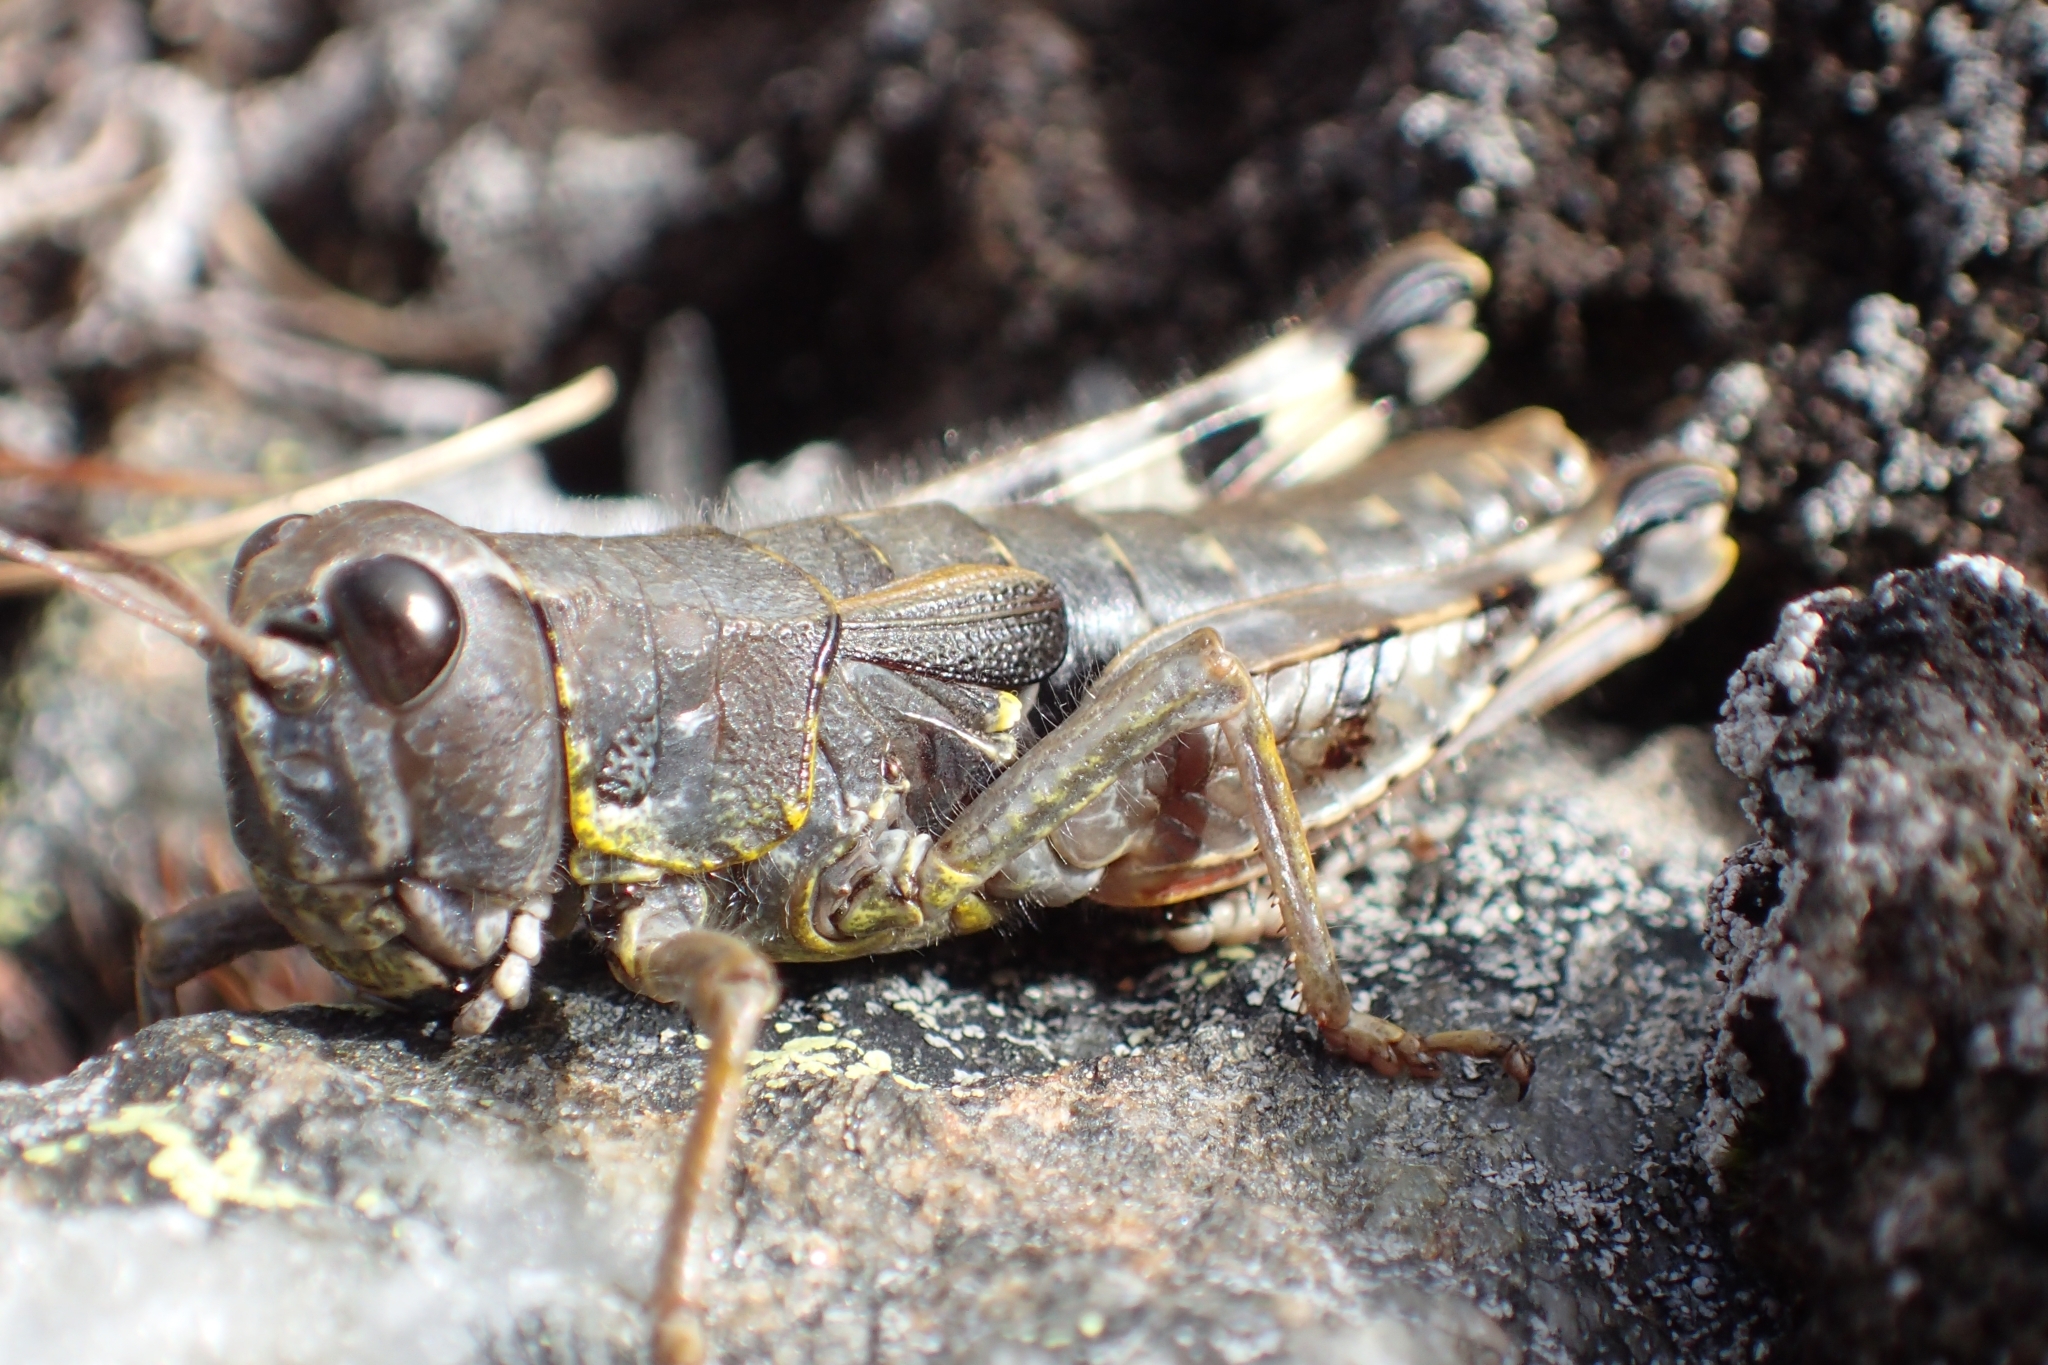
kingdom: Animalia
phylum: Arthropoda
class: Insecta
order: Orthoptera
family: Acrididae
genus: Sigaus
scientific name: Sigaus australis
